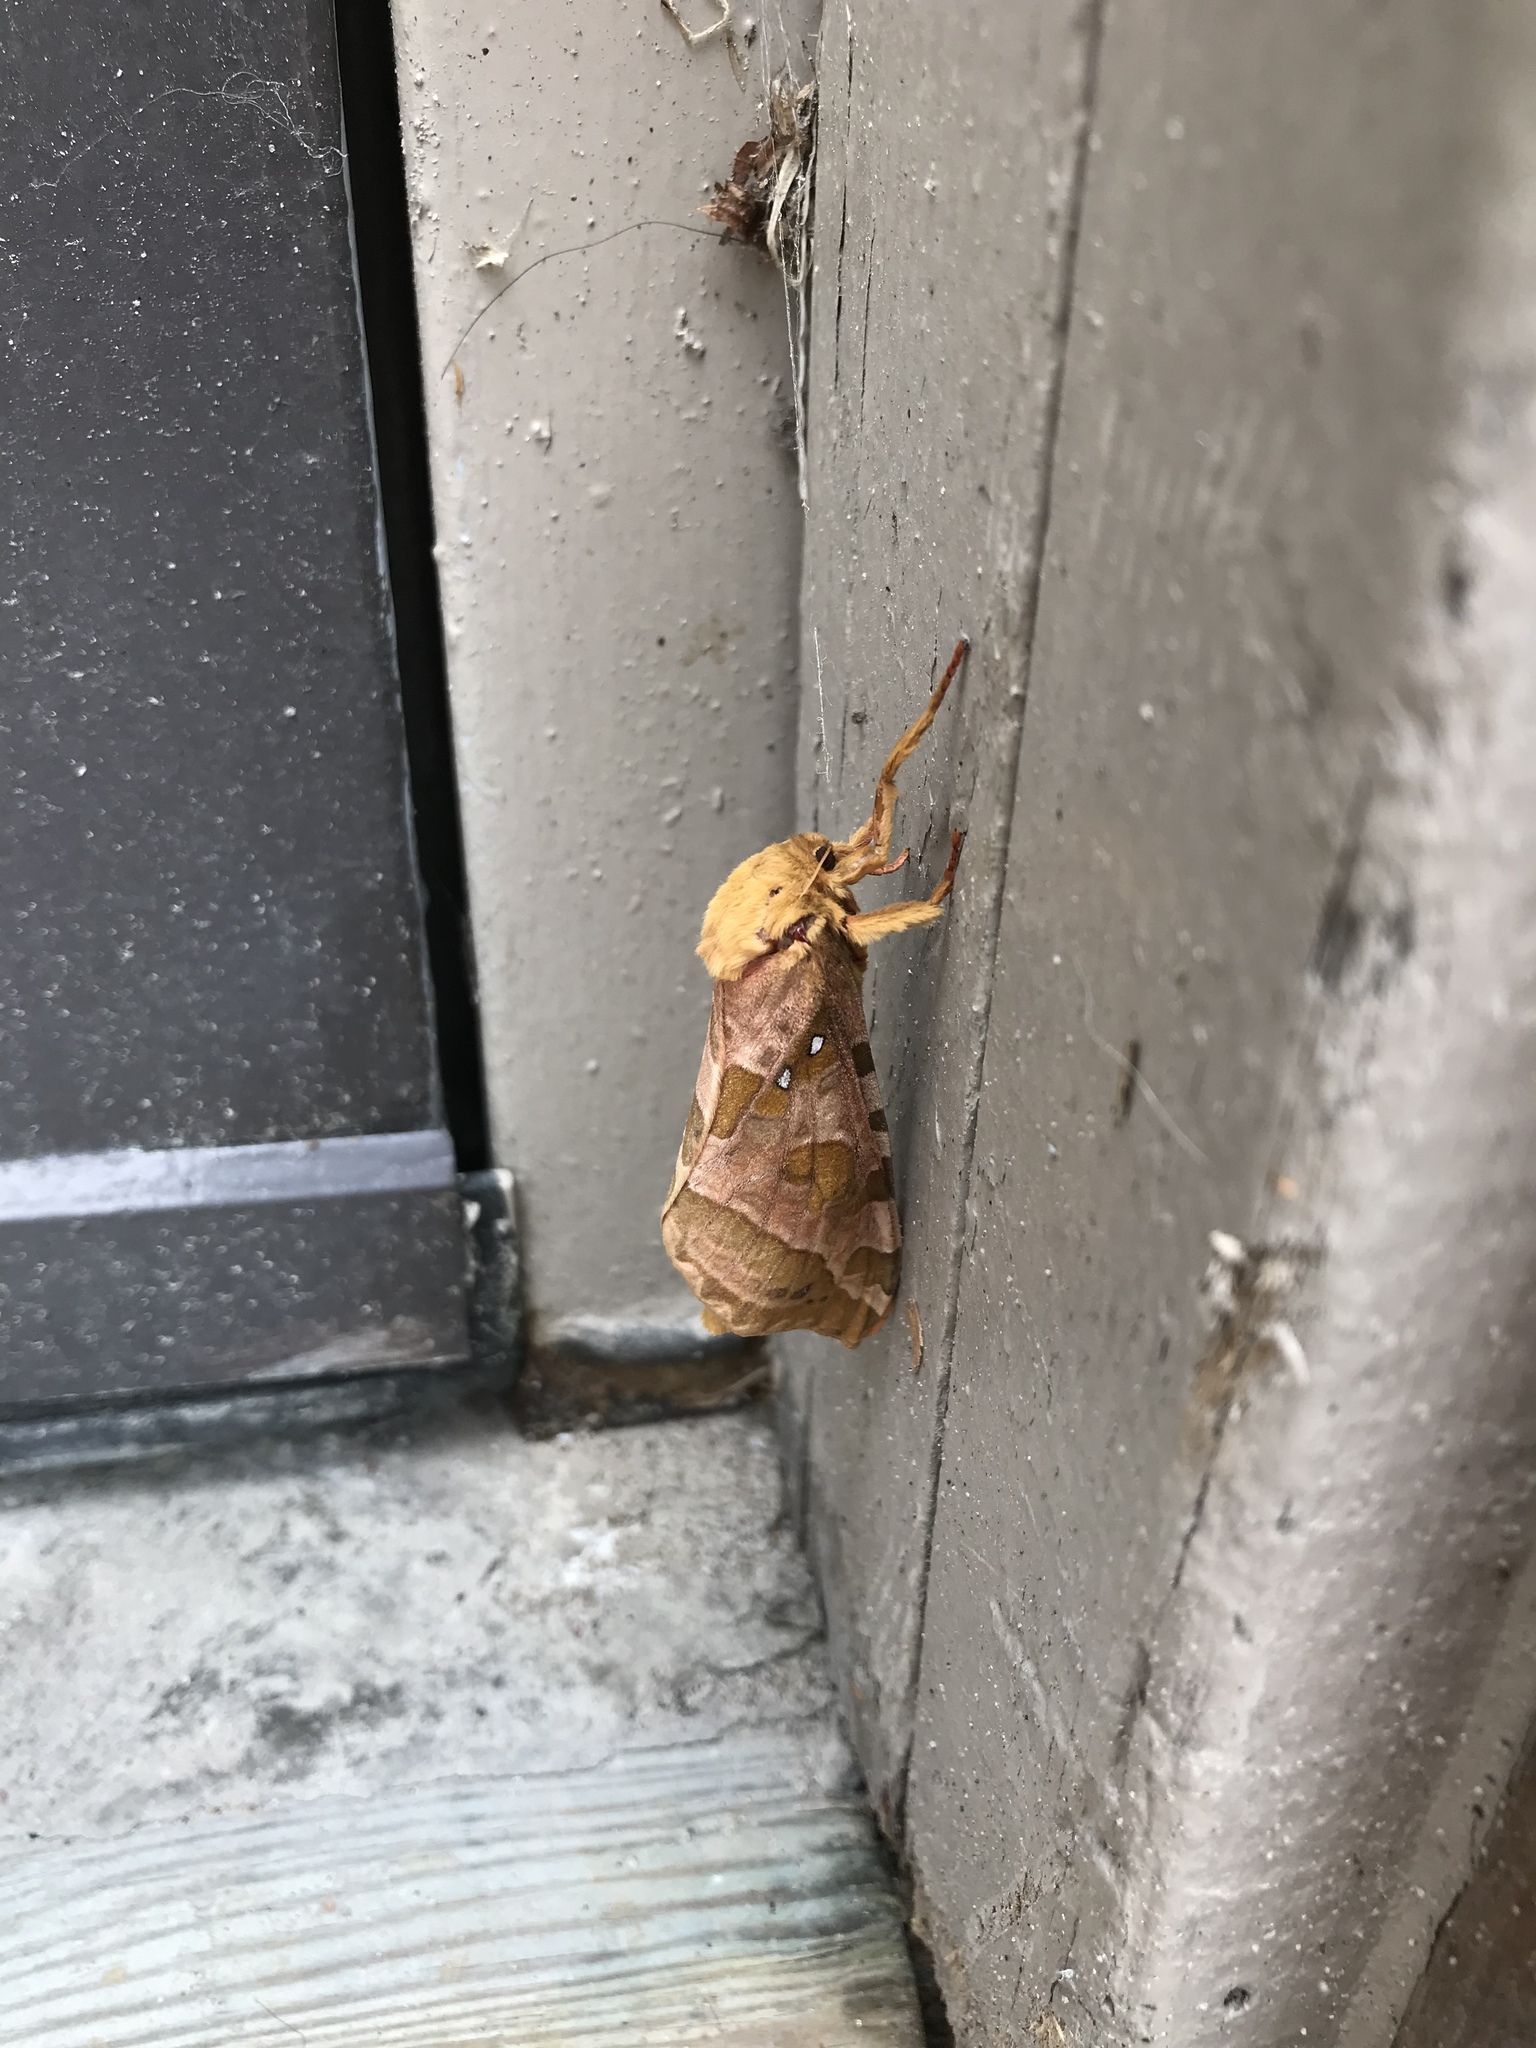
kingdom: Animalia
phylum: Arthropoda
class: Insecta
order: Lepidoptera
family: Hepialidae
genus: Sthenopis
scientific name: Sthenopis purpurascens
